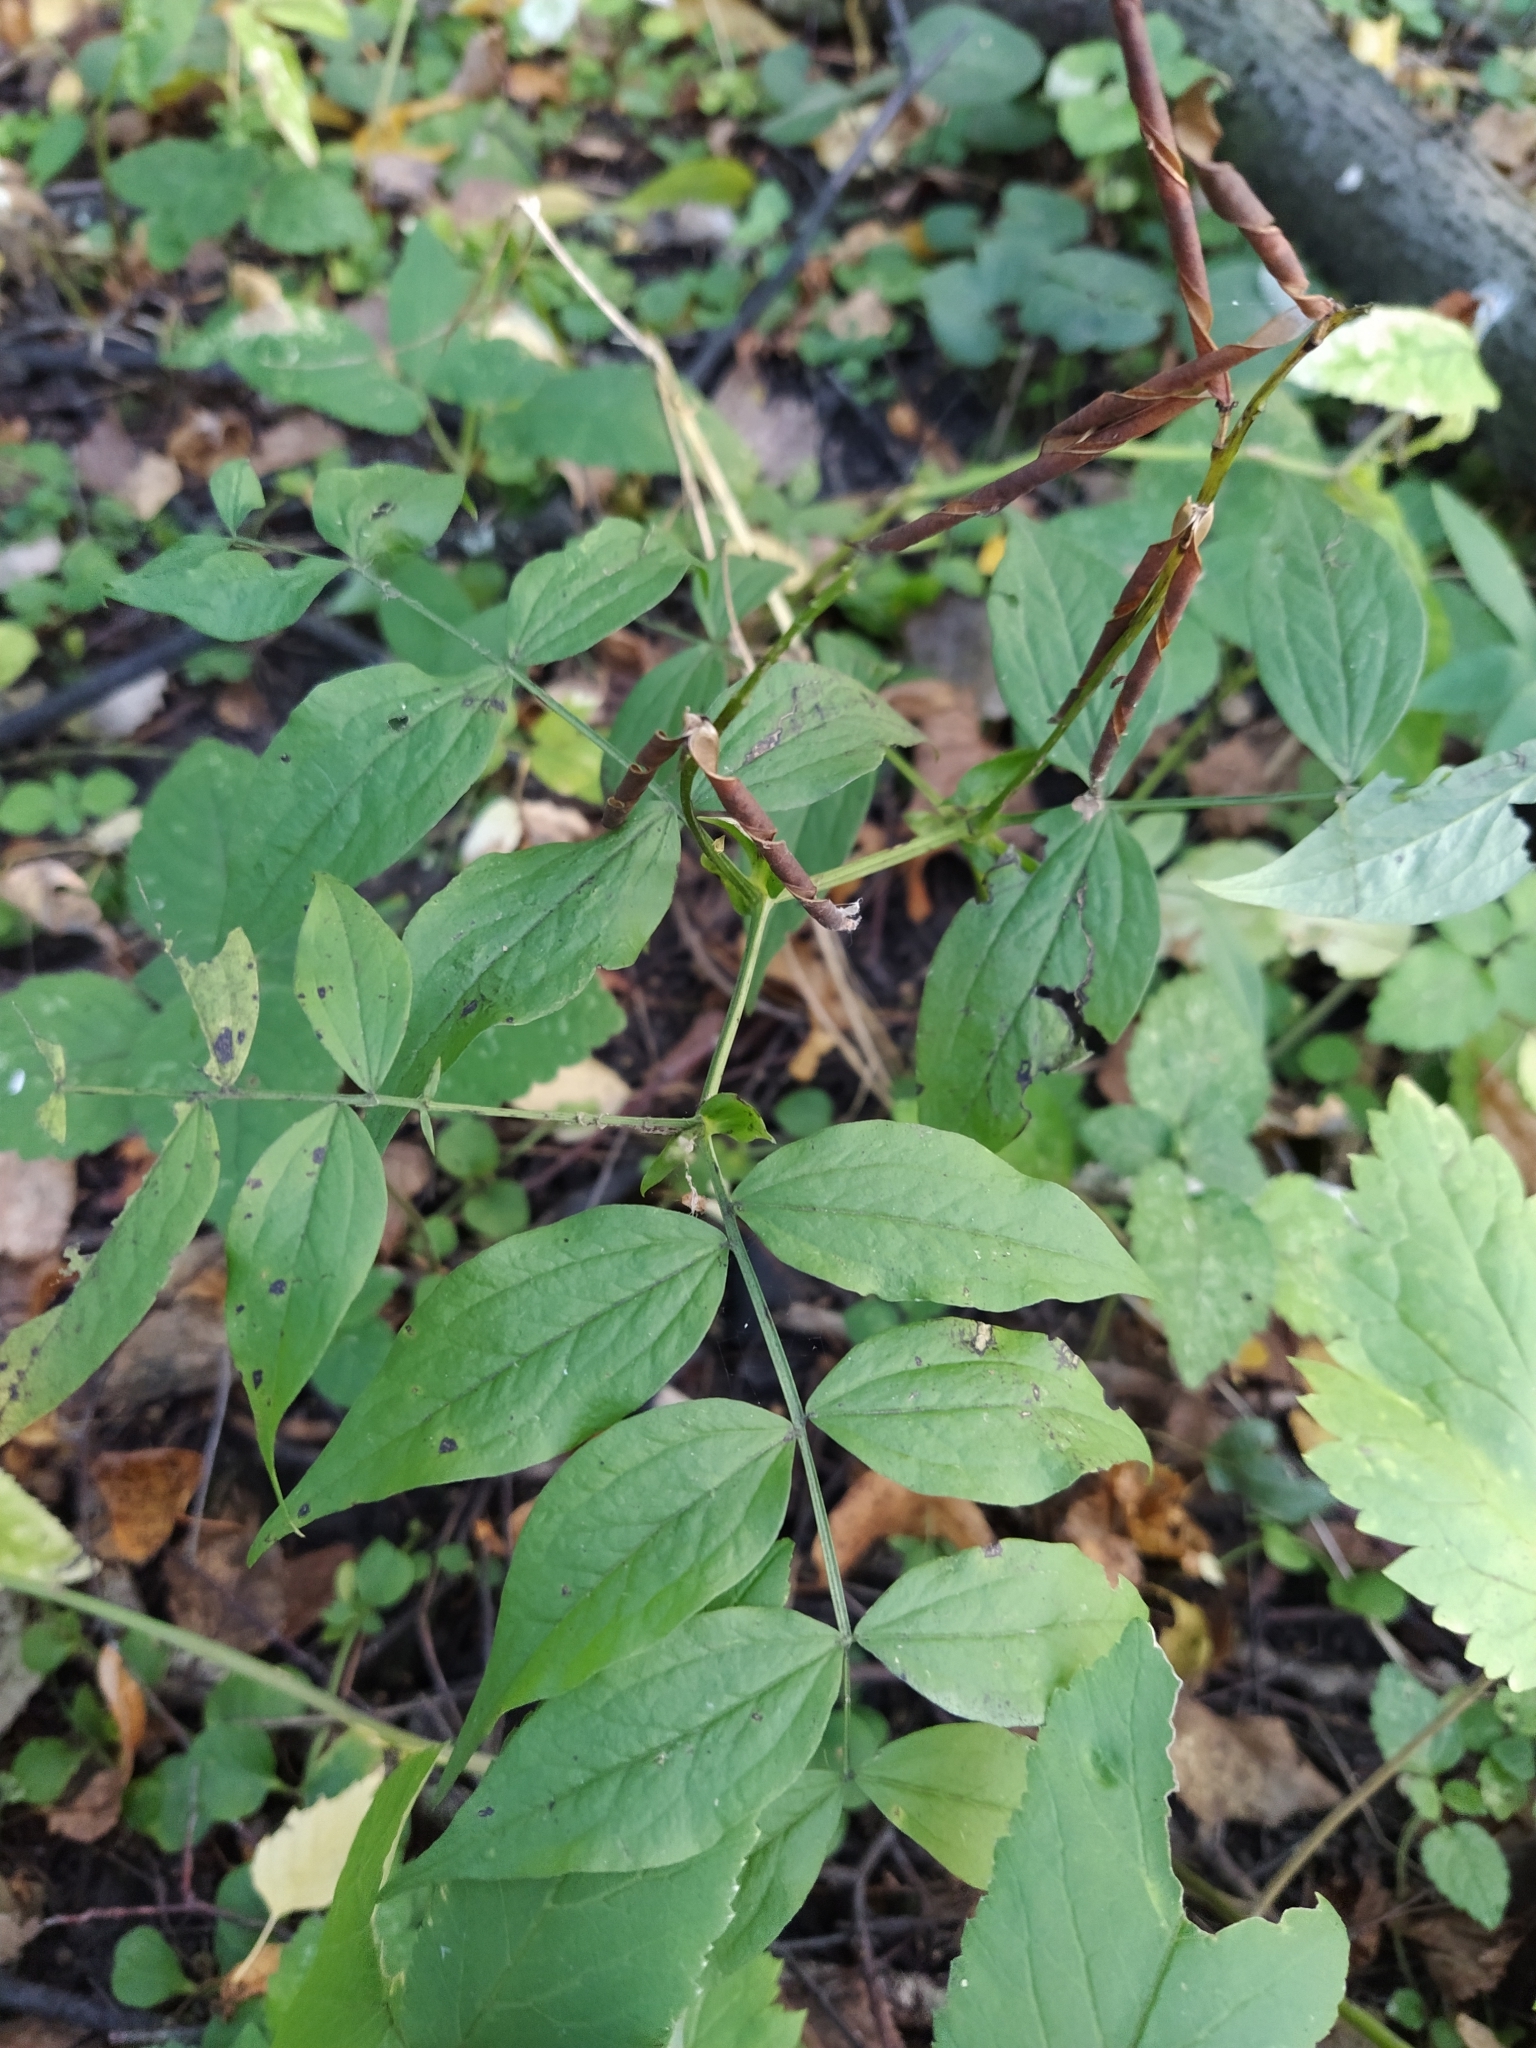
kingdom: Plantae
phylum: Tracheophyta
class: Magnoliopsida
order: Fabales
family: Fabaceae
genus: Lathyrus
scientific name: Lathyrus vernus
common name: Spring pea
